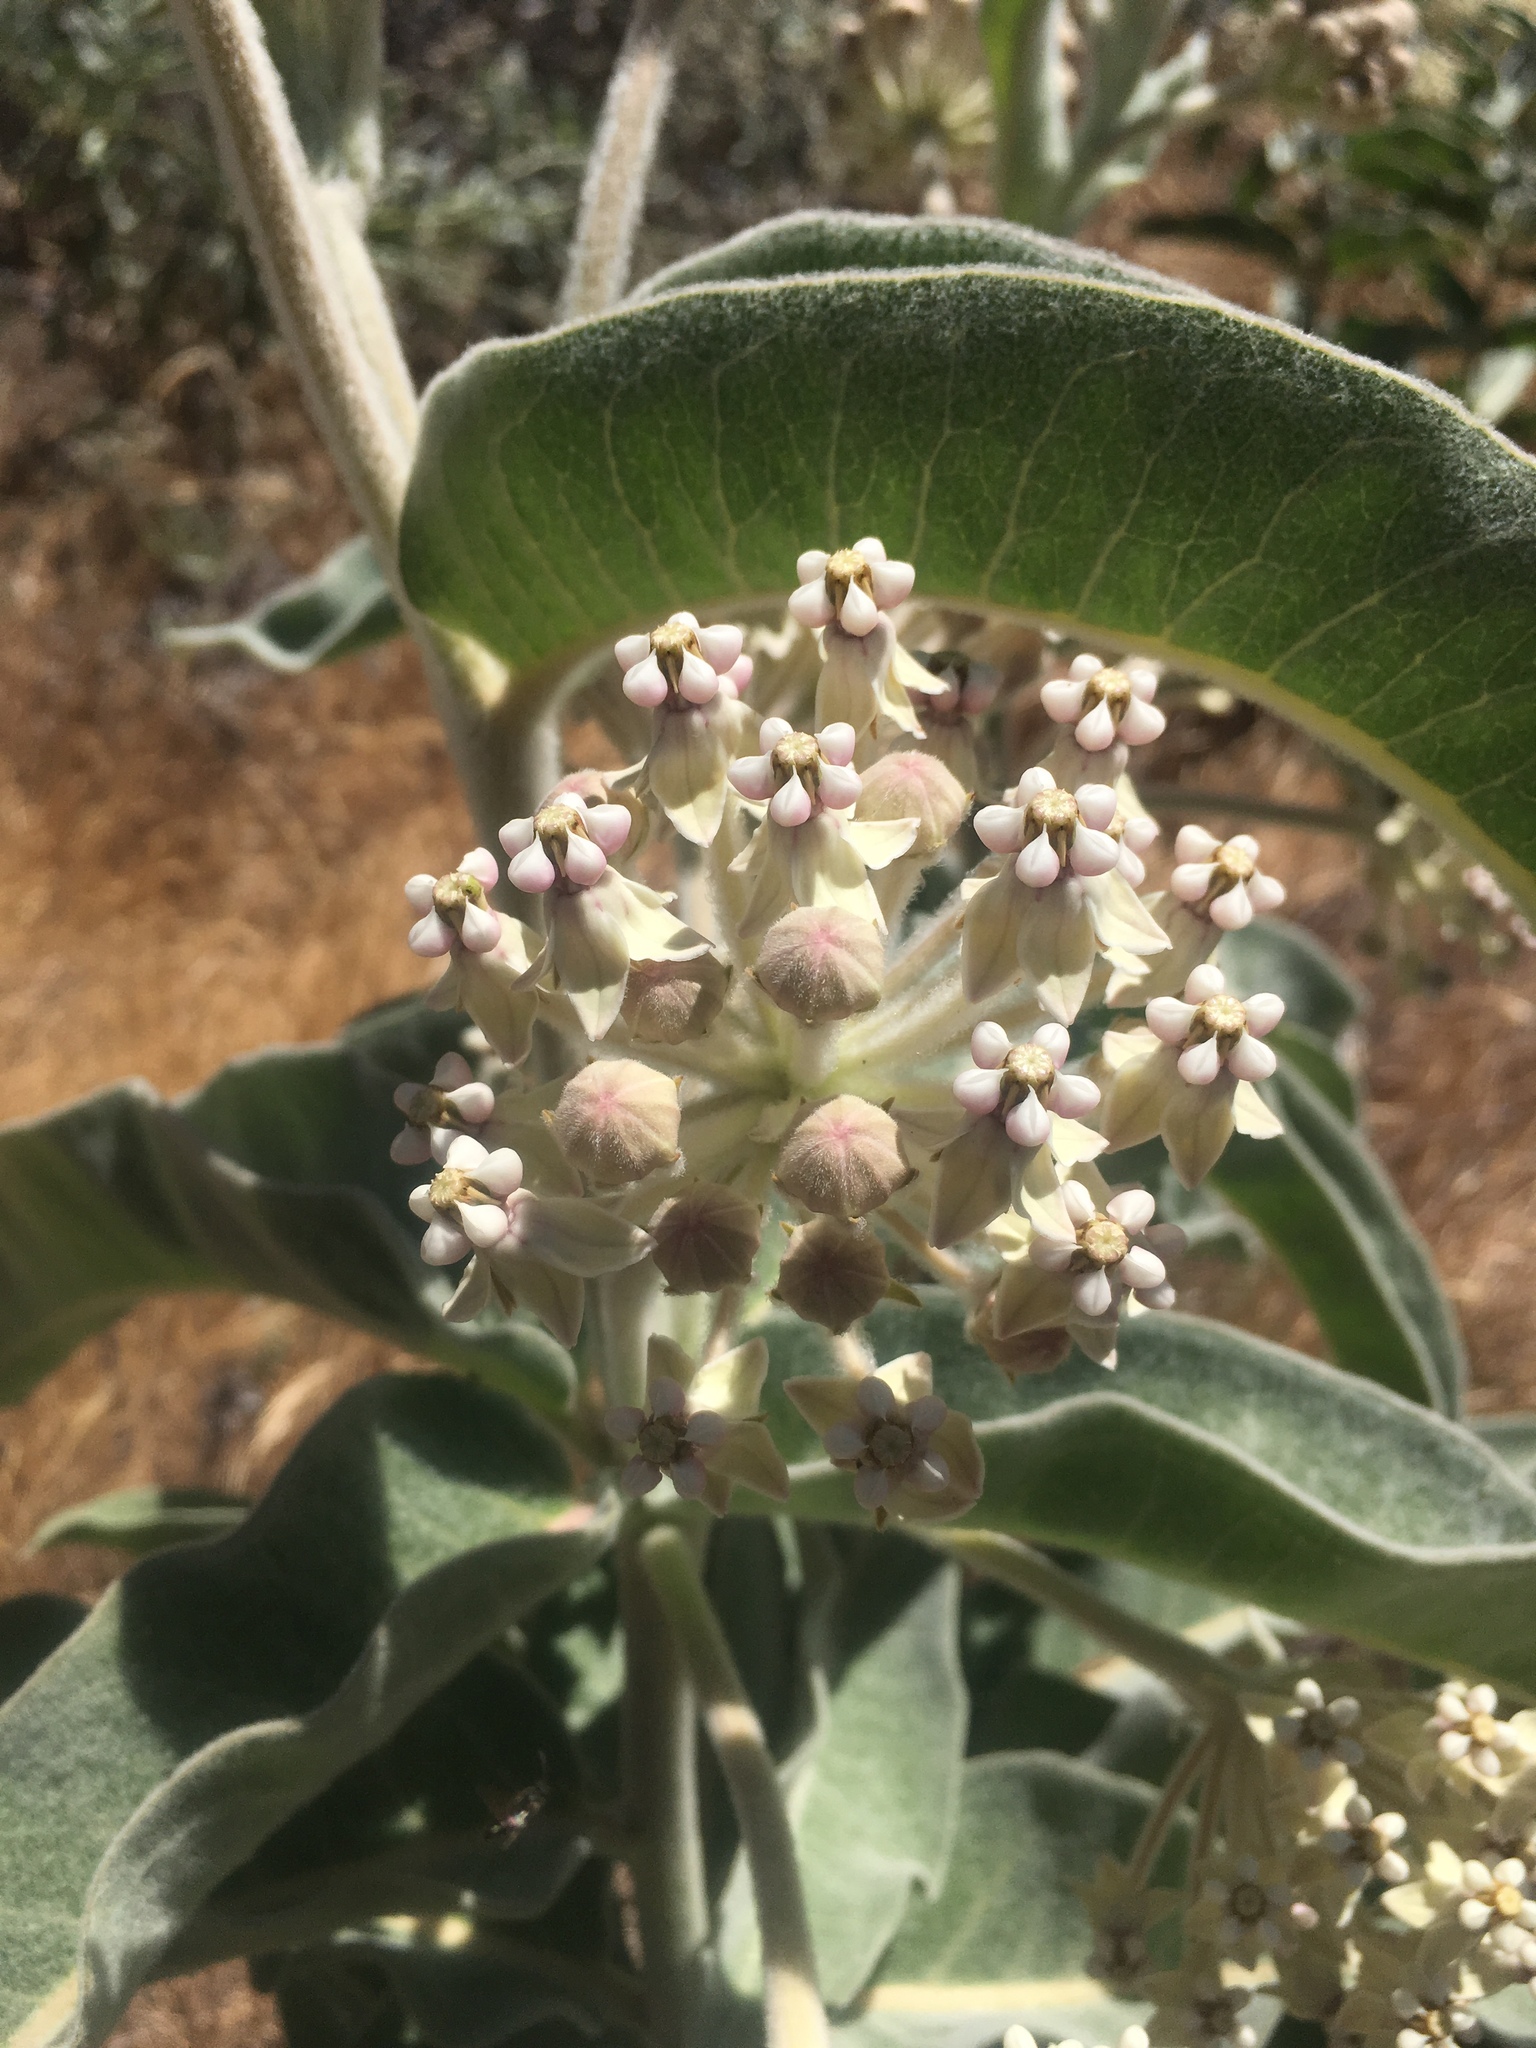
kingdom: Plantae
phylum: Tracheophyta
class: Magnoliopsida
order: Gentianales
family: Apocynaceae
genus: Asclepias
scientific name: Asclepias eriocarpa
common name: Indian milkweed
